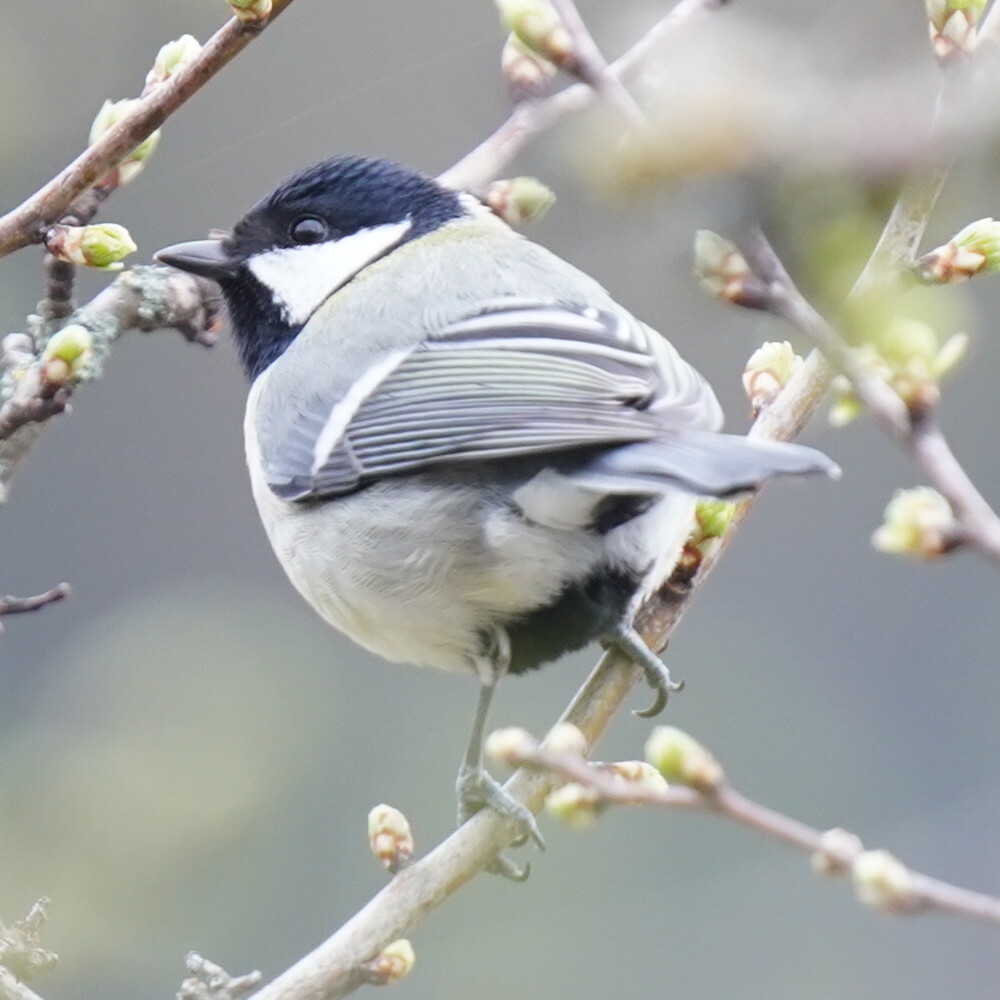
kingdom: Animalia
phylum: Chordata
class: Aves
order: Passeriformes
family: Paridae
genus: Parus
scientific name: Parus major
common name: Great tit
